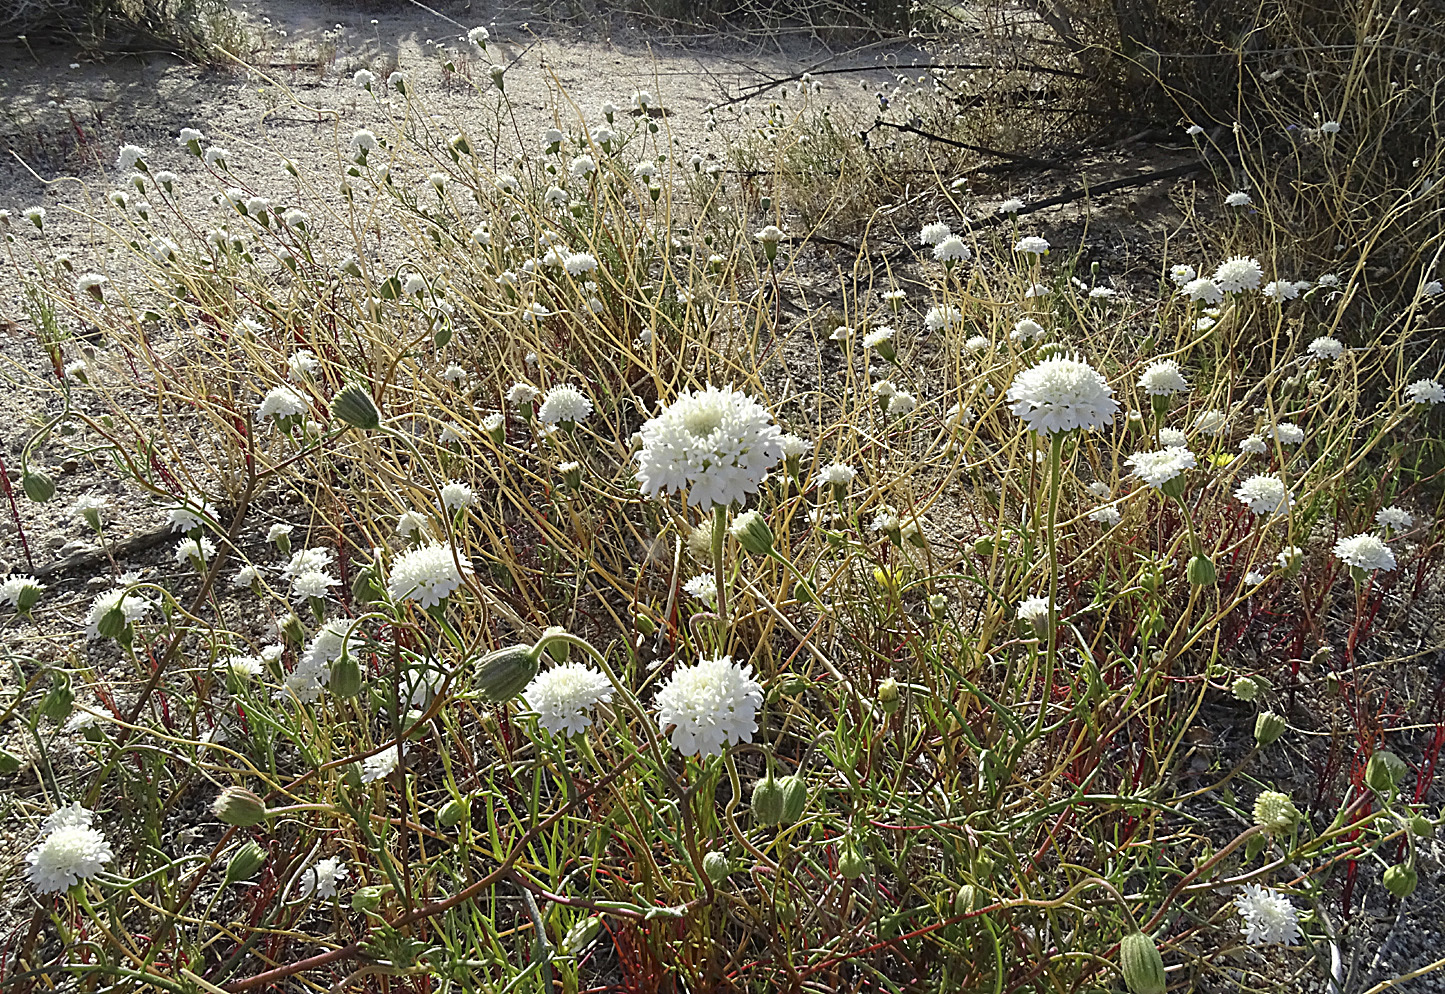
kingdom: Plantae
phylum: Tracheophyta
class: Magnoliopsida
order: Asterales
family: Asteraceae
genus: Chaenactis
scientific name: Chaenactis fremontii
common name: Fremont pincushion
